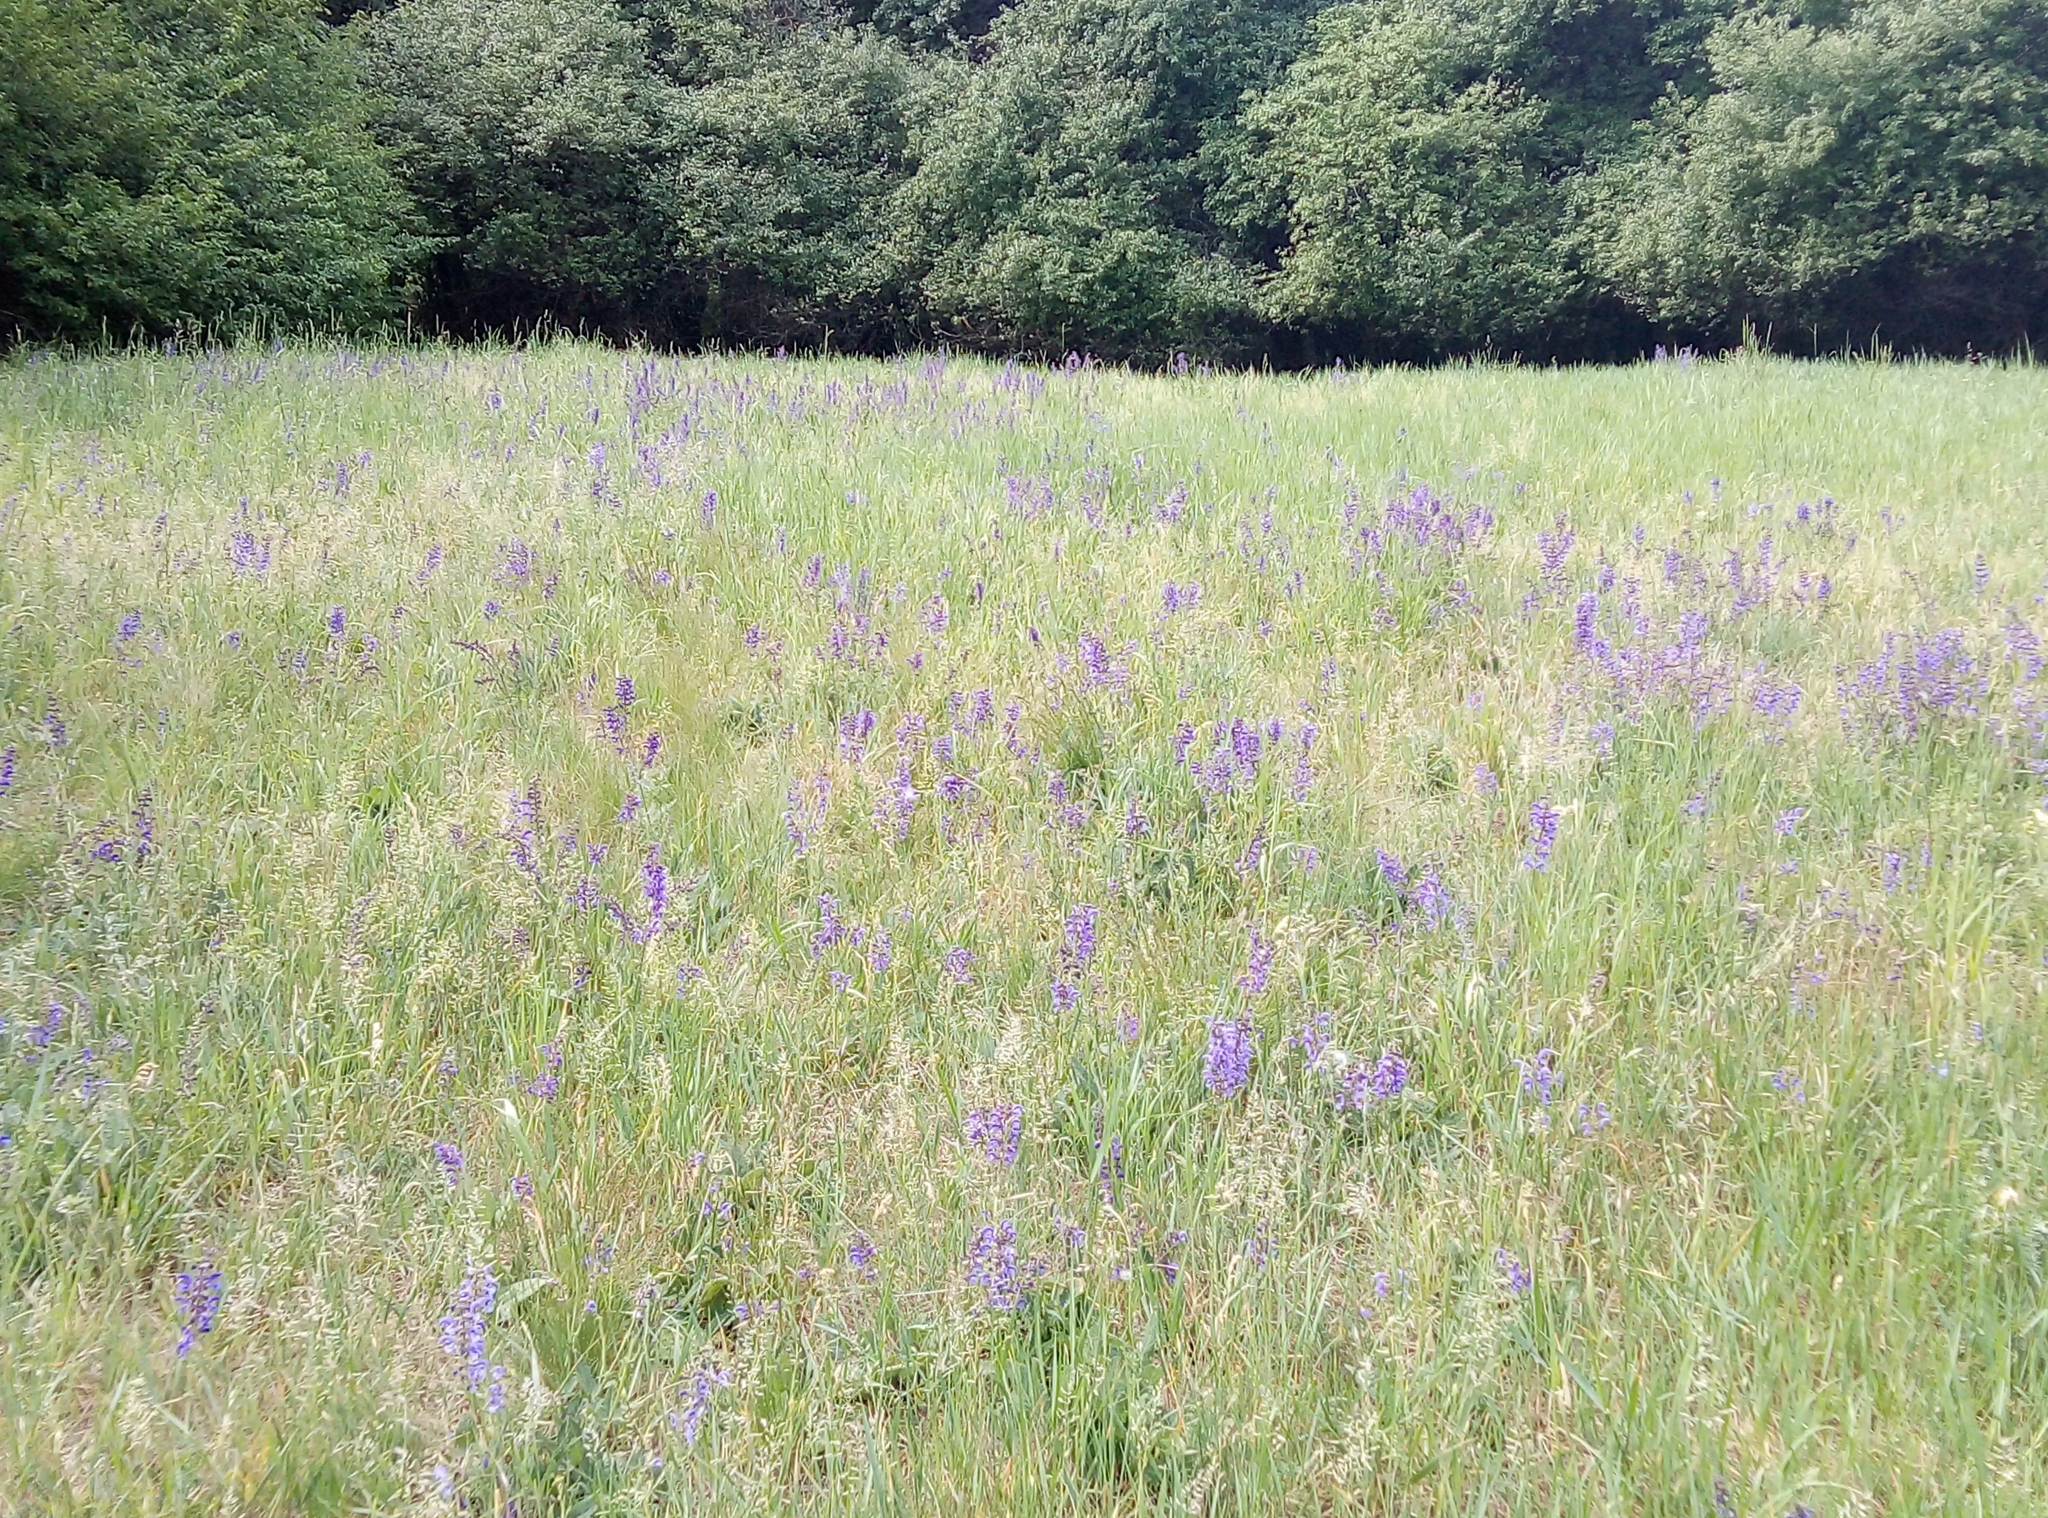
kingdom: Plantae
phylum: Tracheophyta
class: Magnoliopsida
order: Lamiales
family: Lamiaceae
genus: Salvia
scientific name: Salvia pratensis
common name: Meadow sage
